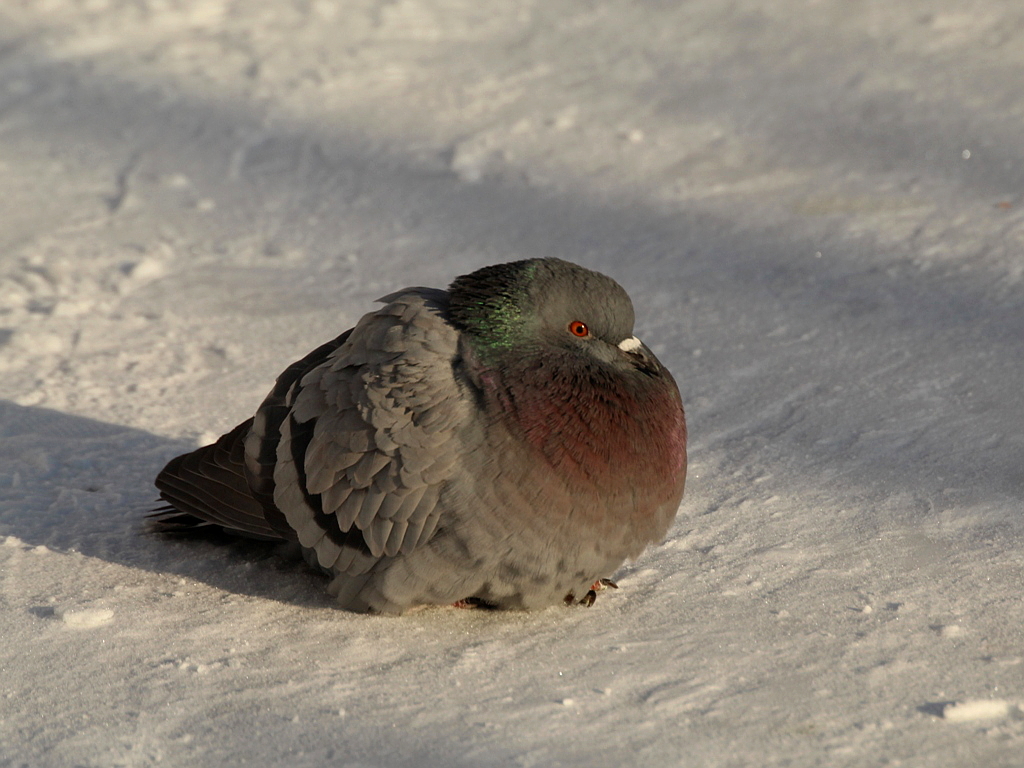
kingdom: Animalia
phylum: Chordata
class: Aves
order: Columbiformes
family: Columbidae
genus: Columba
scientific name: Columba livia
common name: Rock pigeon
